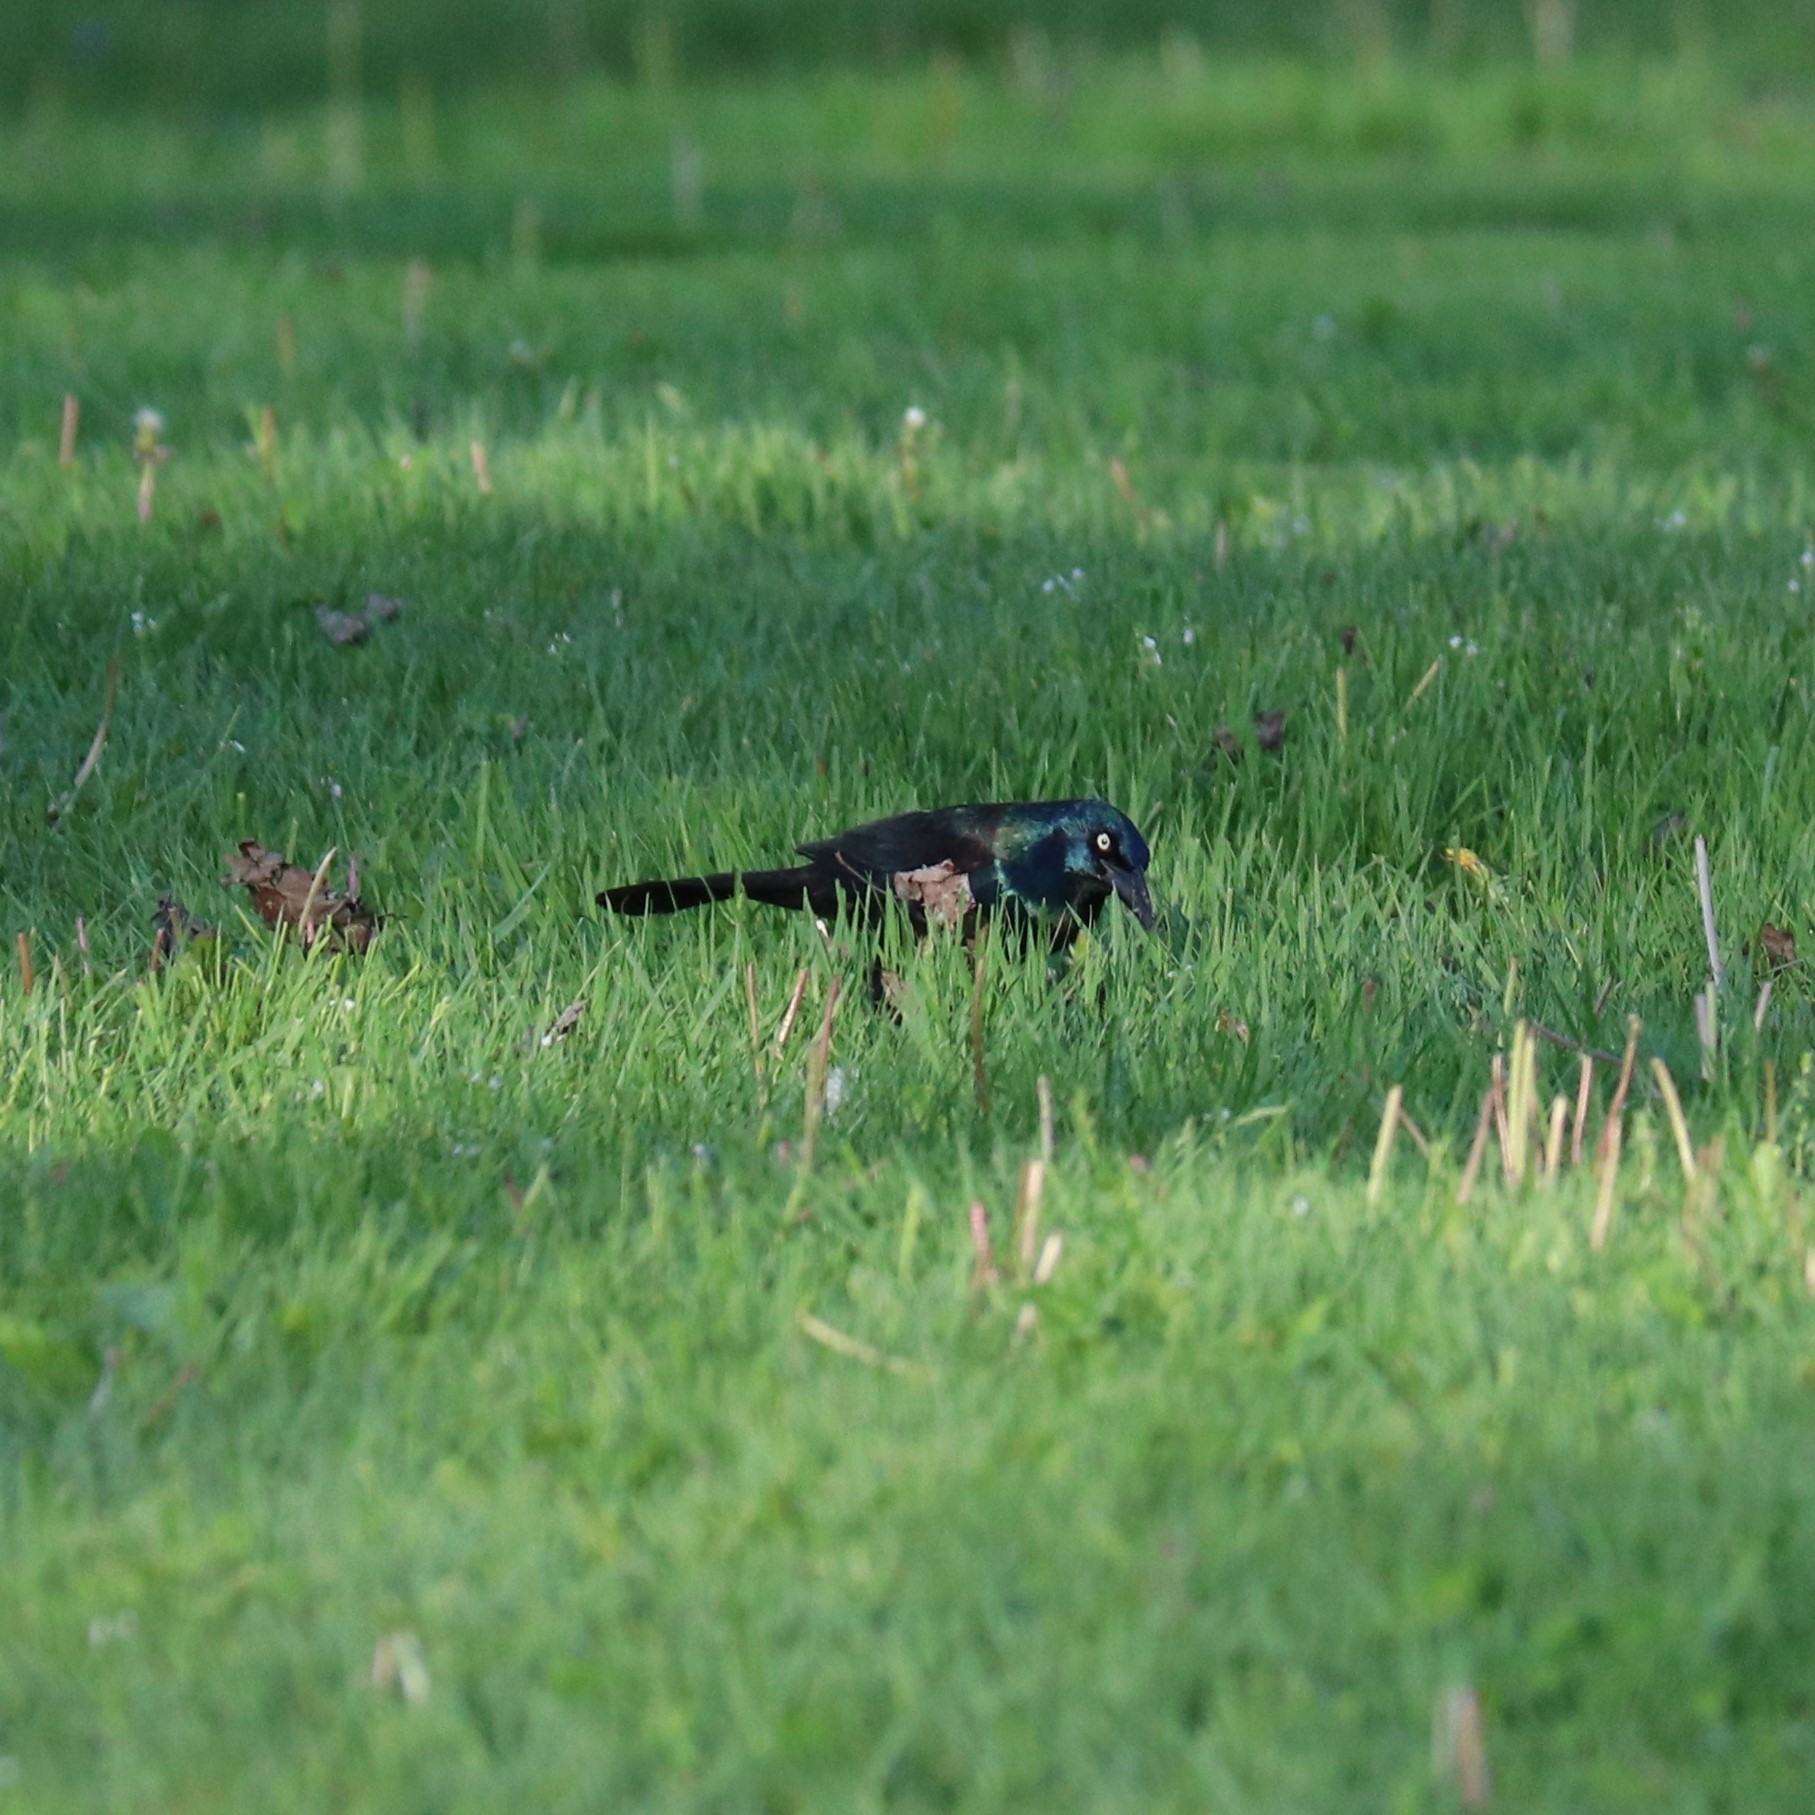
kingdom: Animalia
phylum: Chordata
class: Aves
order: Passeriformes
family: Icteridae
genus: Quiscalus
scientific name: Quiscalus quiscula
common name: Common grackle
